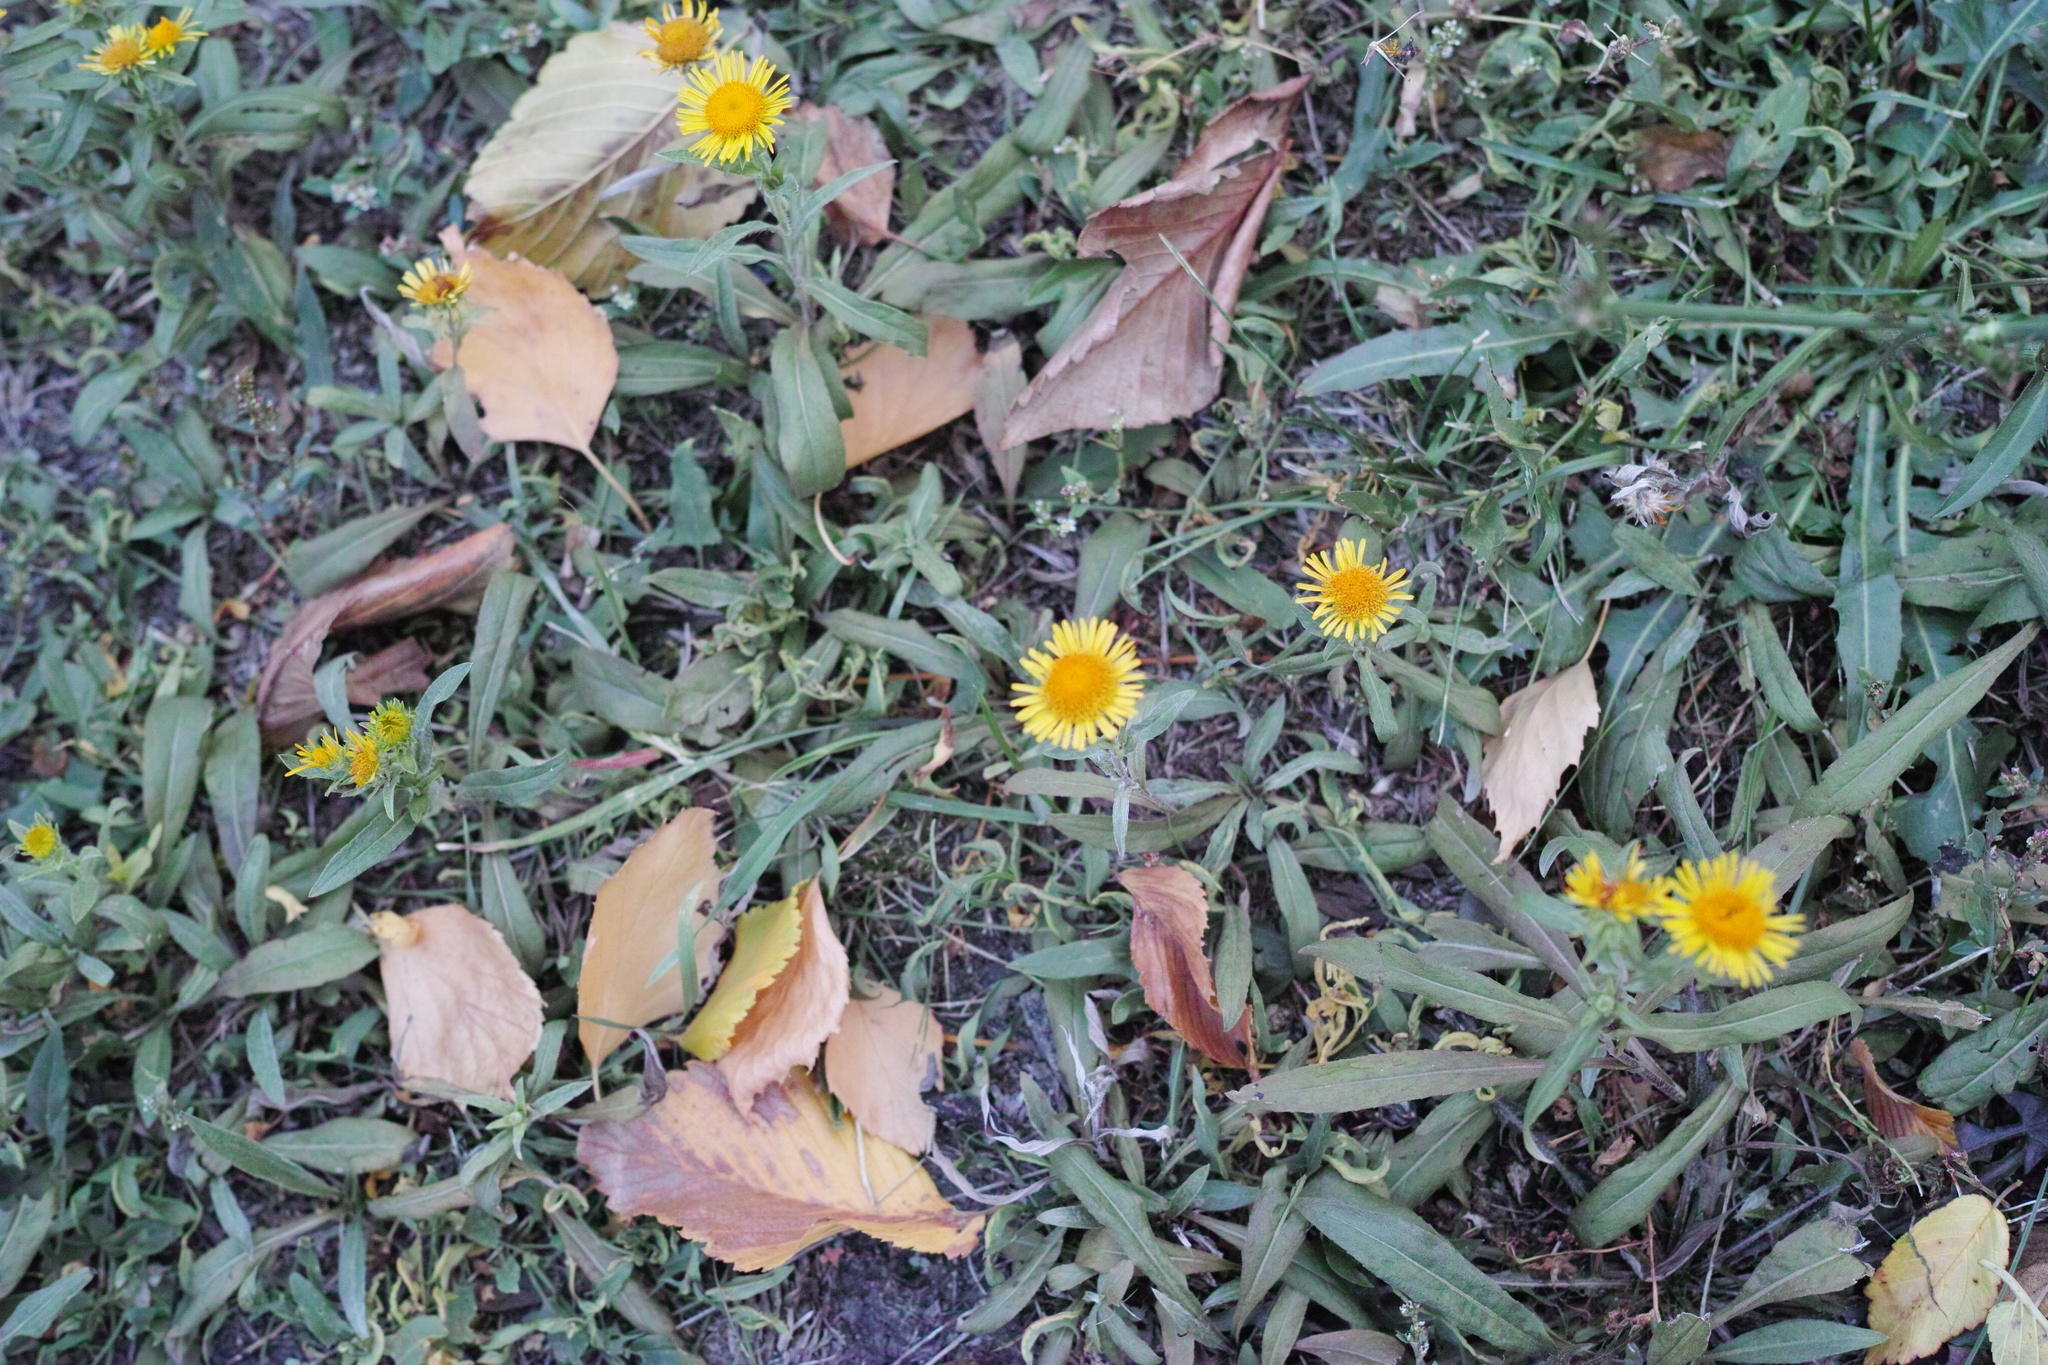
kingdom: Plantae
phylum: Tracheophyta
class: Magnoliopsida
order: Asterales
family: Asteraceae
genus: Pentanema
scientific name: Pentanema britannicum
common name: British elecampane
